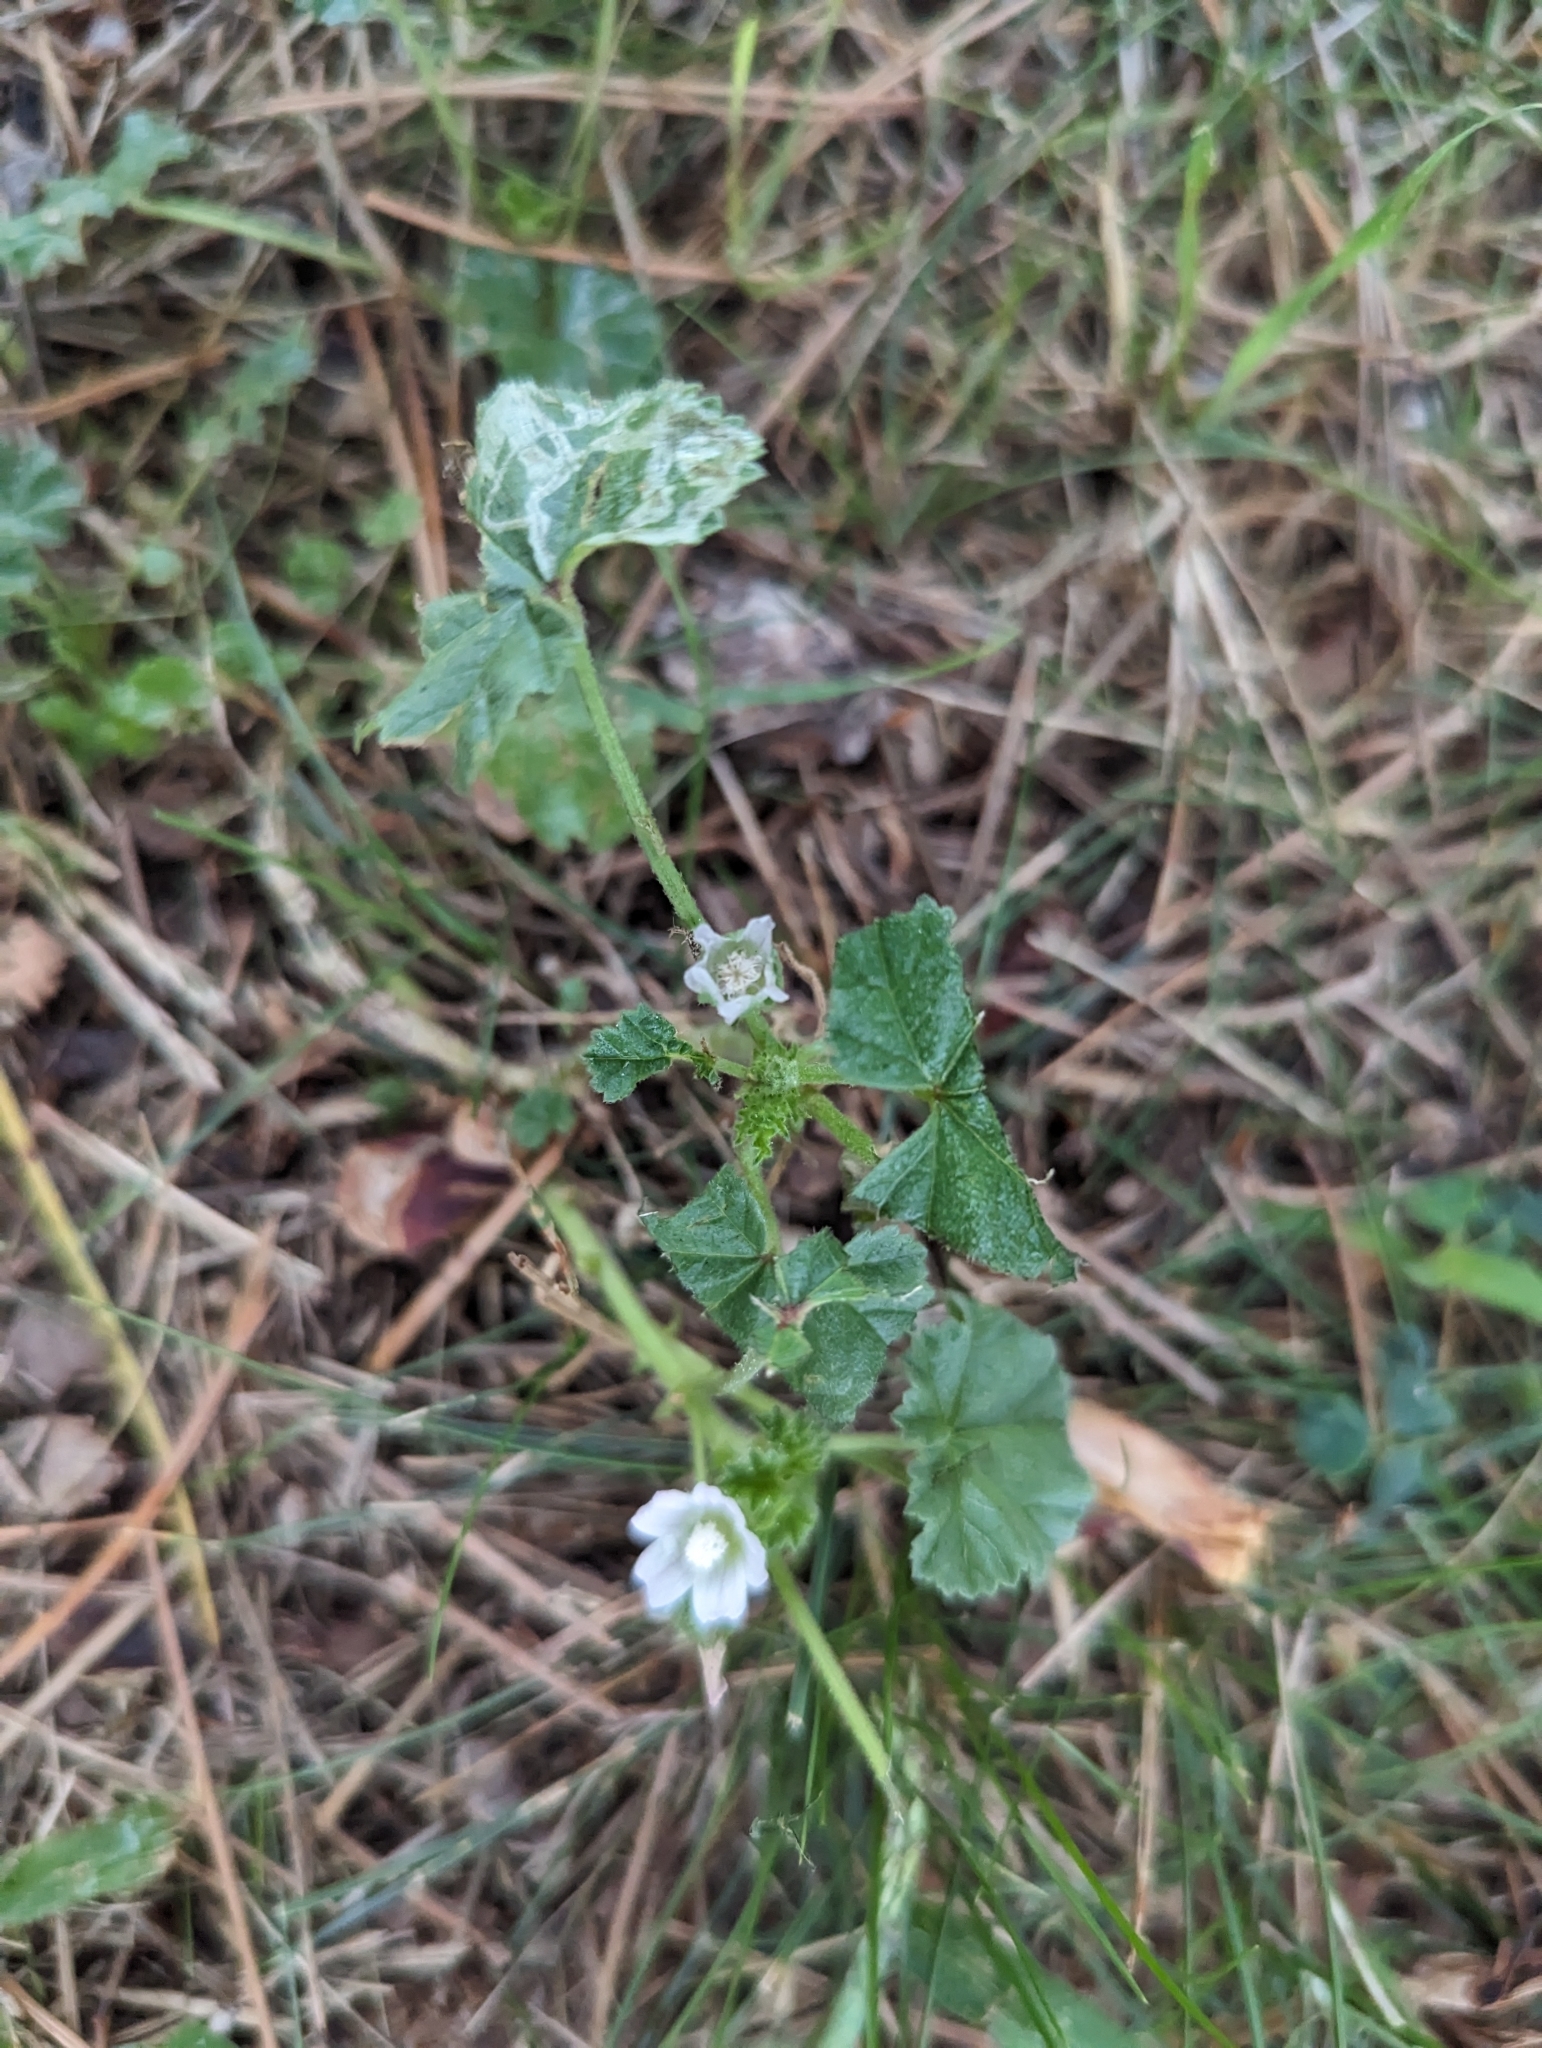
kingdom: Plantae
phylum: Tracheophyta
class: Magnoliopsida
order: Malvales
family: Malvaceae
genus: Malva
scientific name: Malva neglecta
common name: Common mallow
